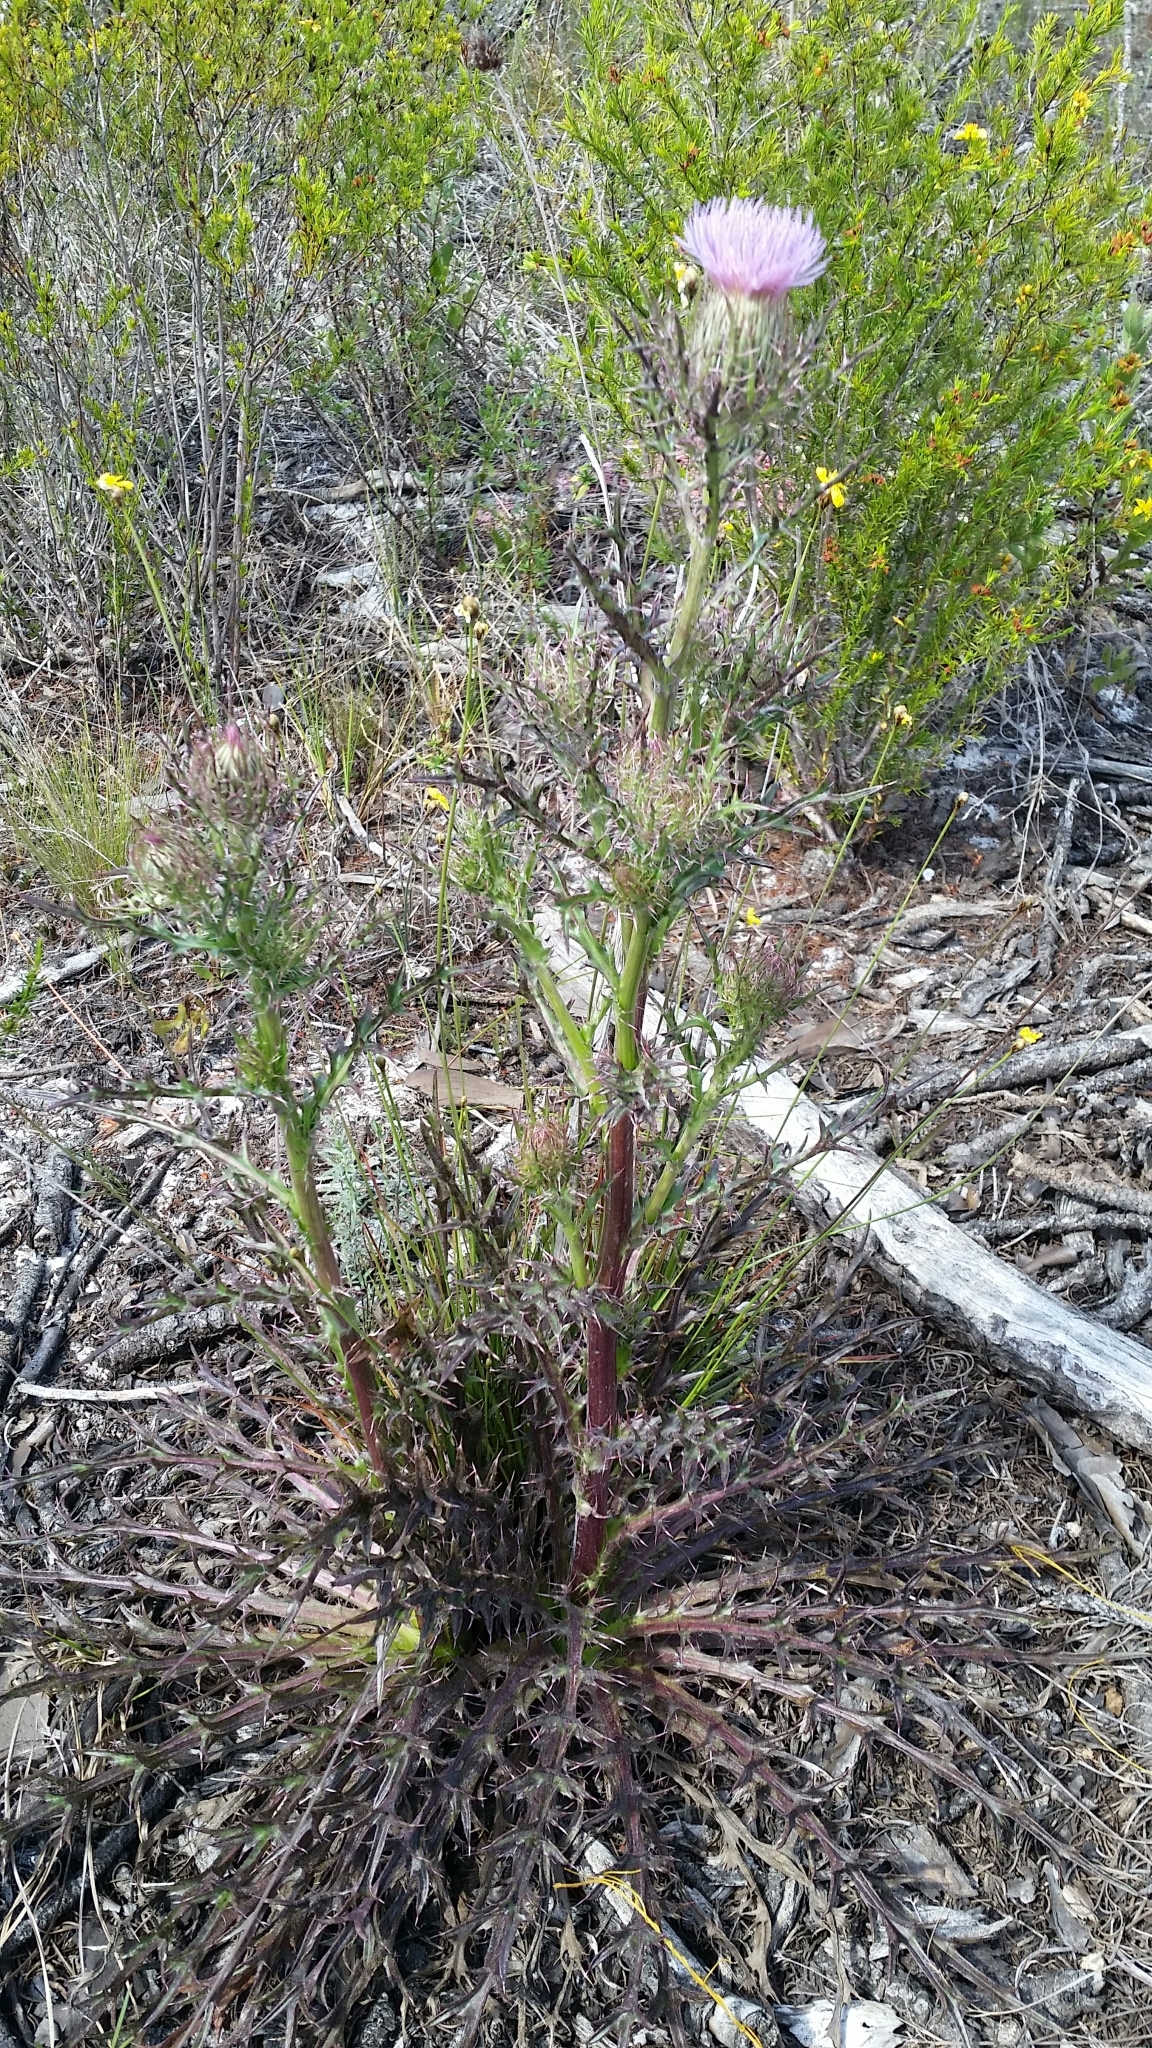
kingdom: Plantae
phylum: Tracheophyta
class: Magnoliopsida
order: Asterales
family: Asteraceae
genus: Cirsium
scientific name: Cirsium horridulum
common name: Bristly thistle
